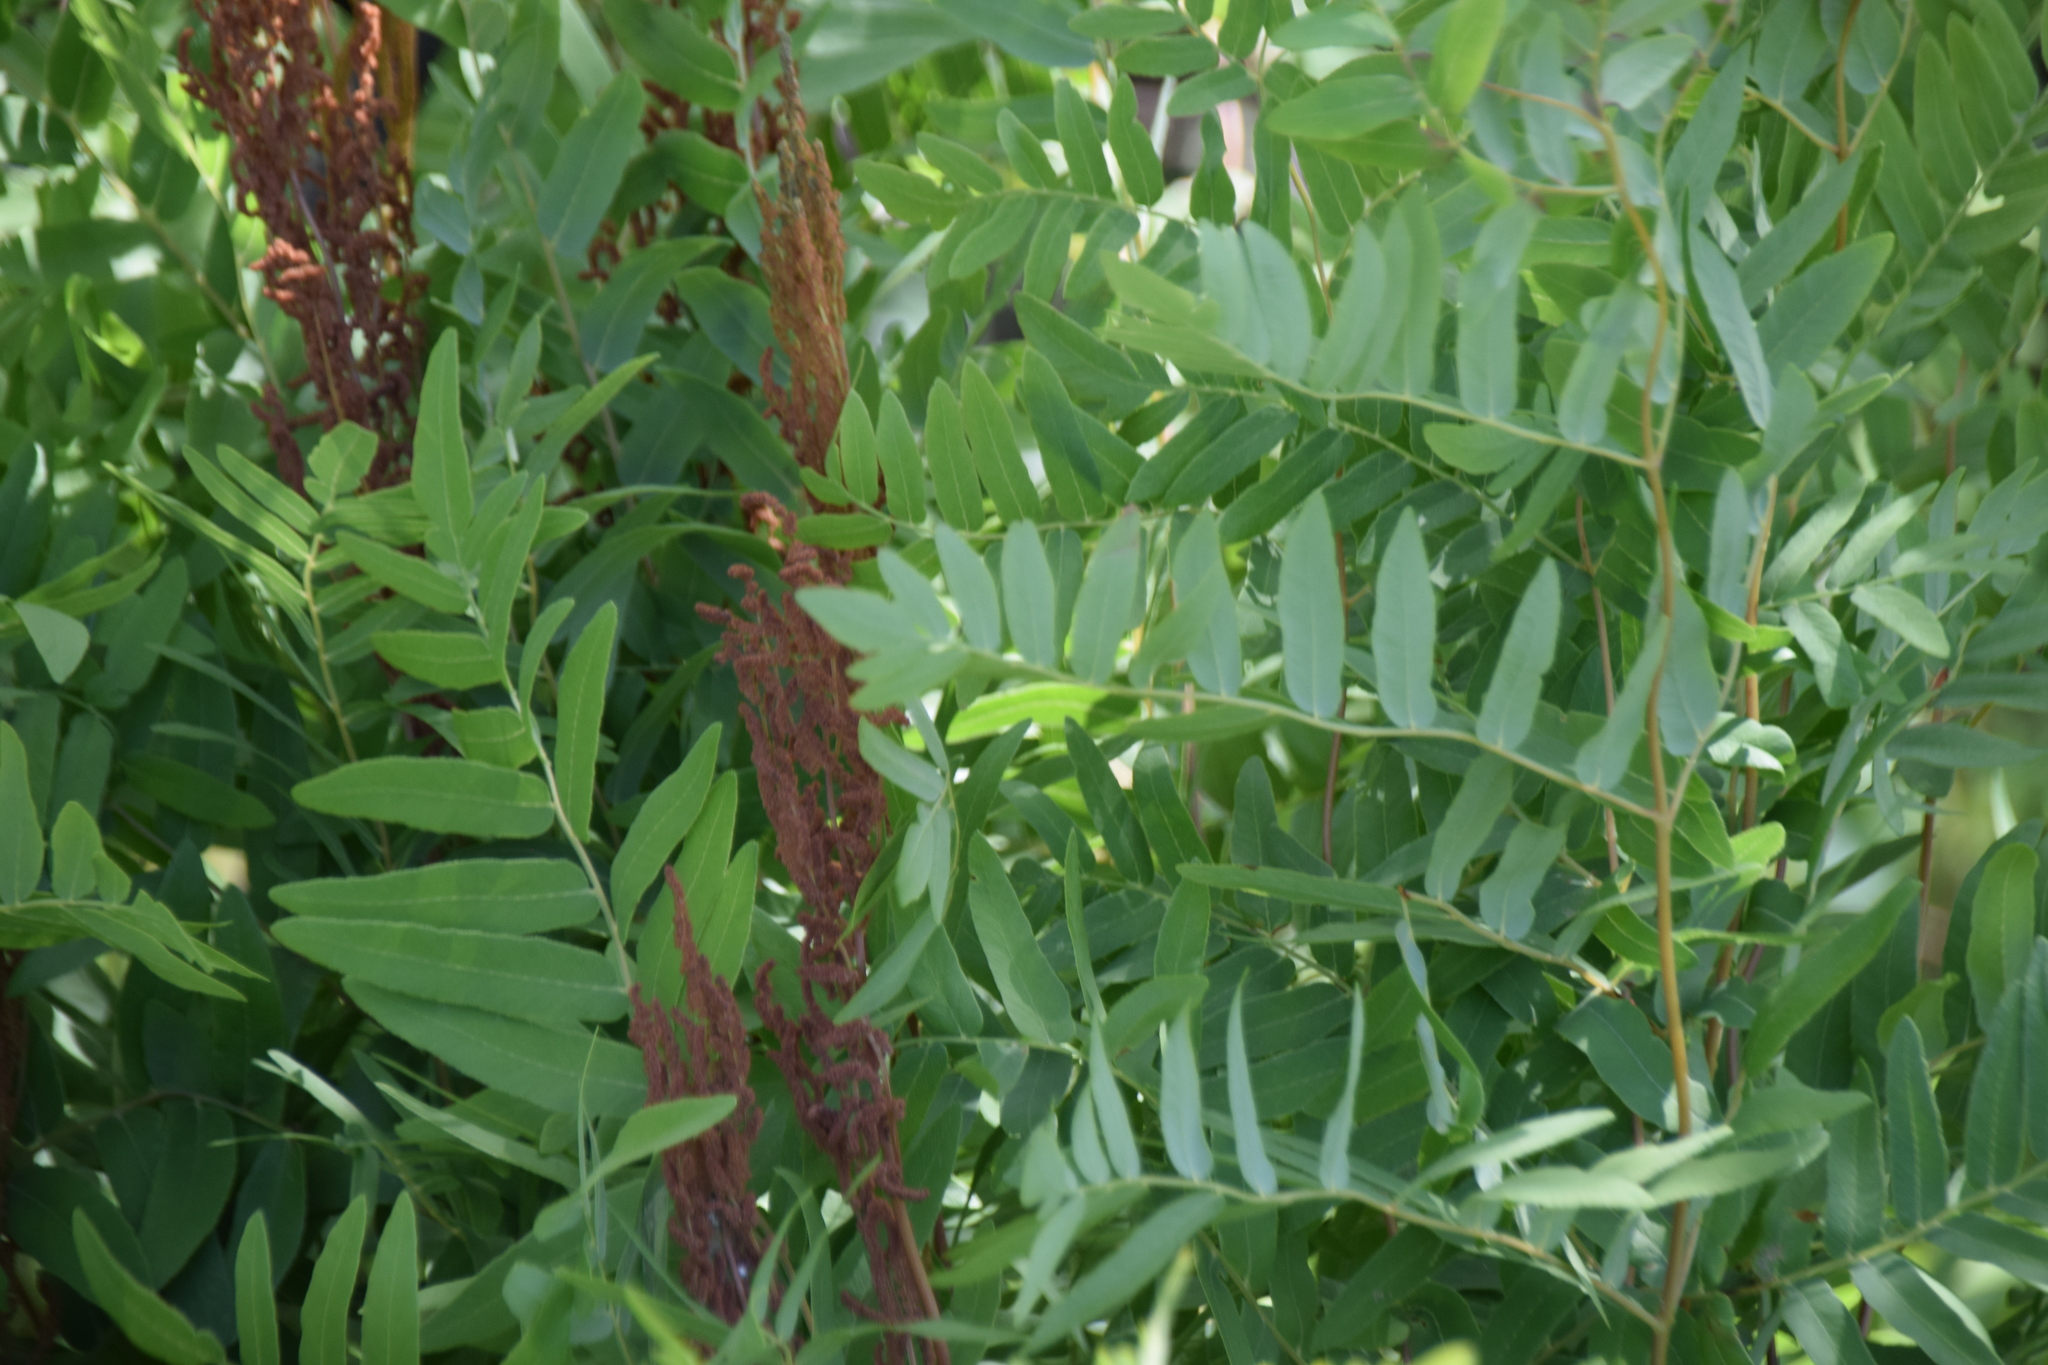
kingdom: Plantae
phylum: Tracheophyta
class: Polypodiopsida
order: Osmundales
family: Osmundaceae
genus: Osmunda
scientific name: Osmunda spectabilis
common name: American royal fern
